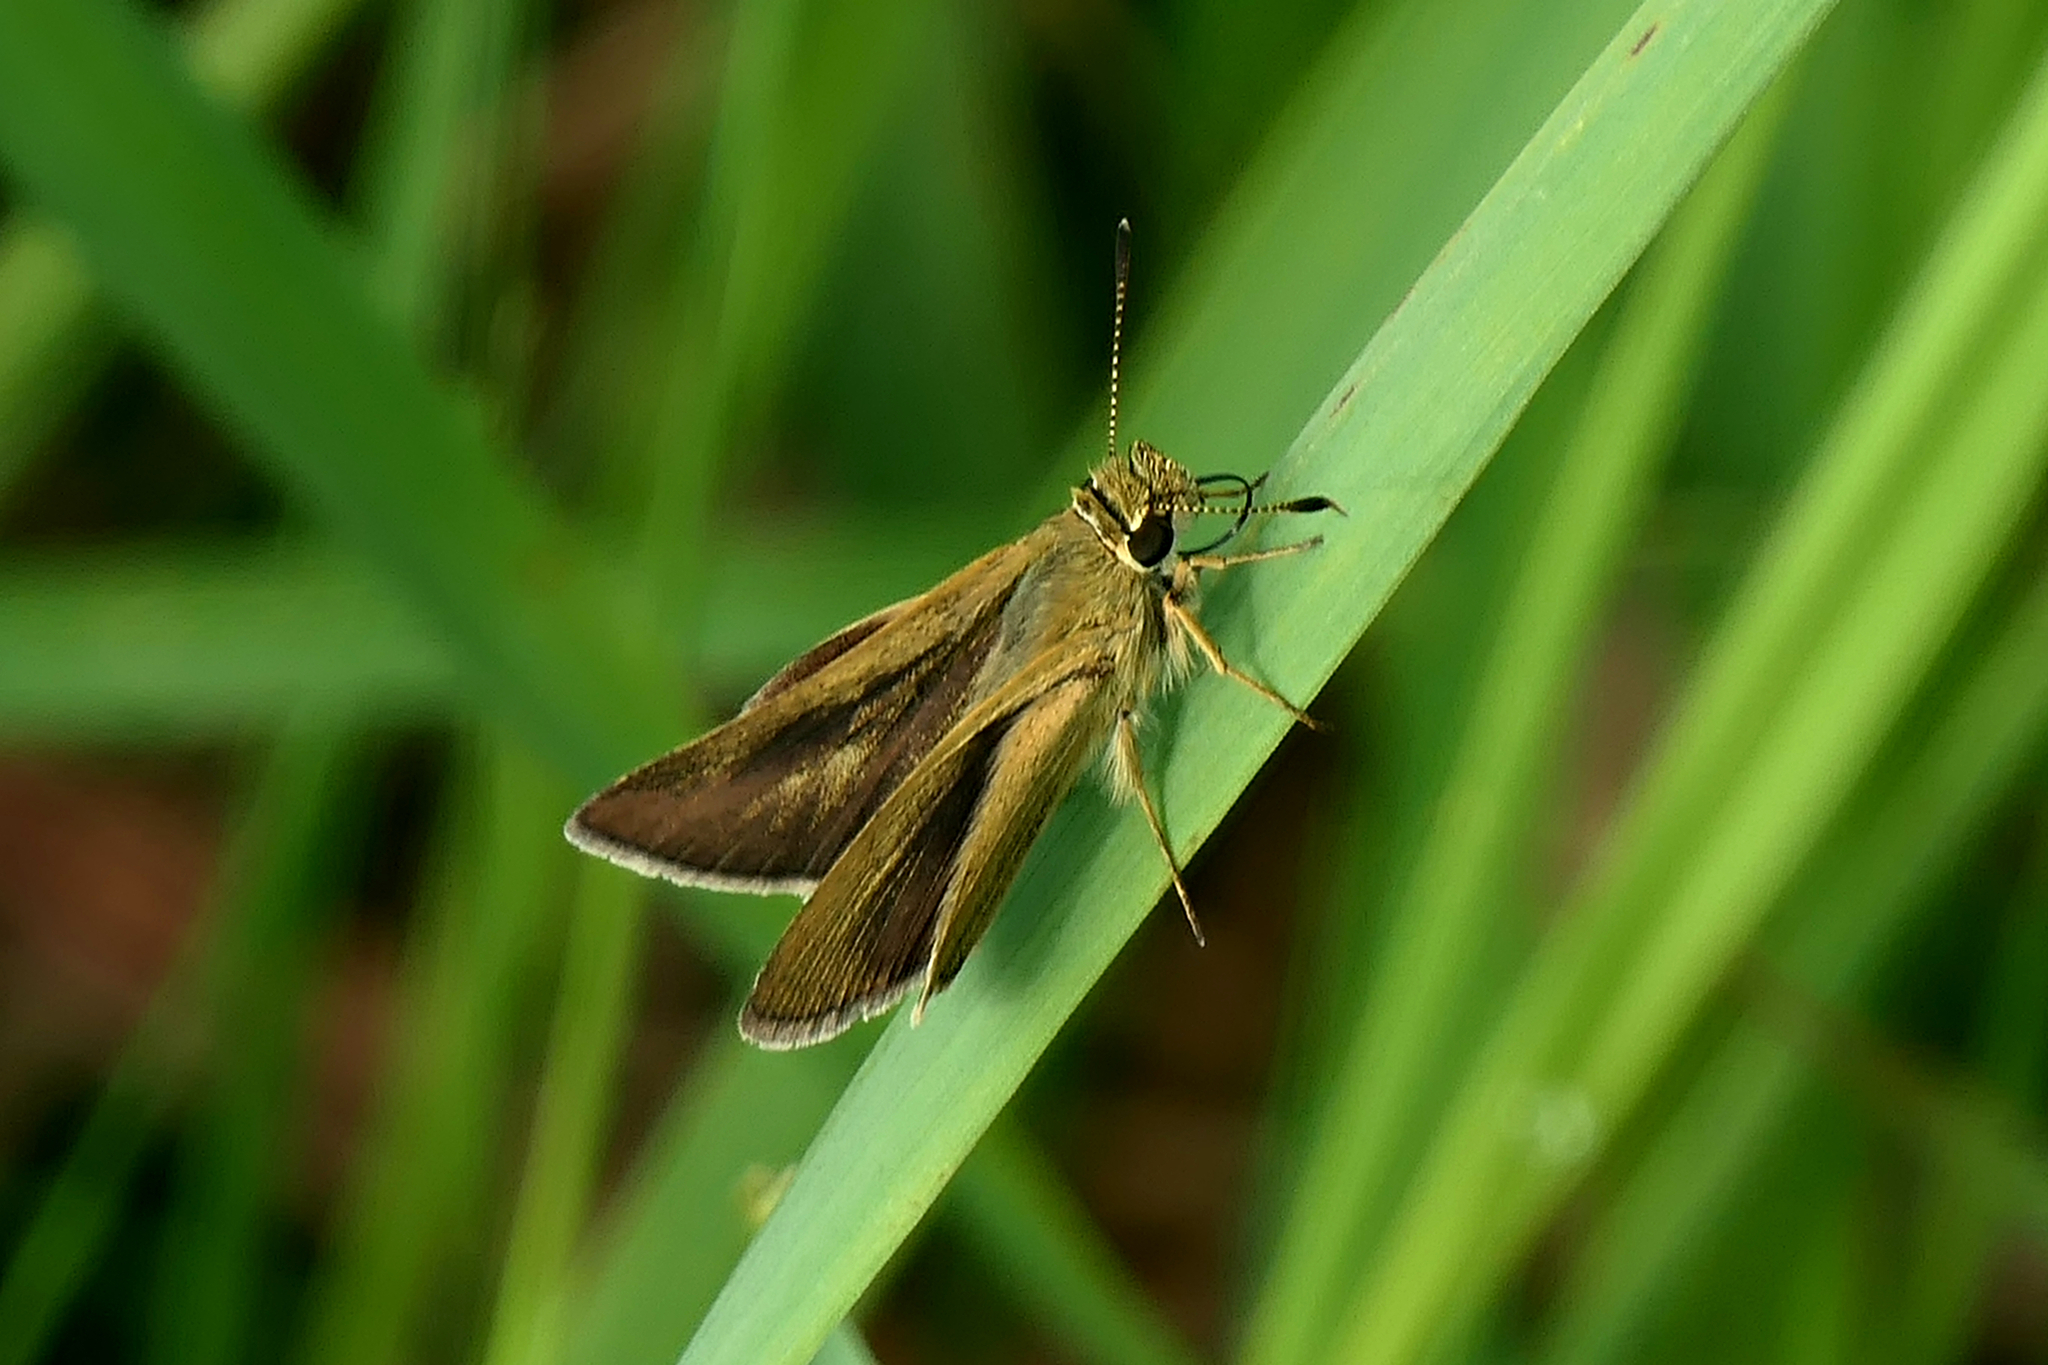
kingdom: Animalia
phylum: Arthropoda
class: Insecta
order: Lepidoptera
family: Hesperiidae
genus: Nastra
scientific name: Nastra lherminier
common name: Swarthy skipper
